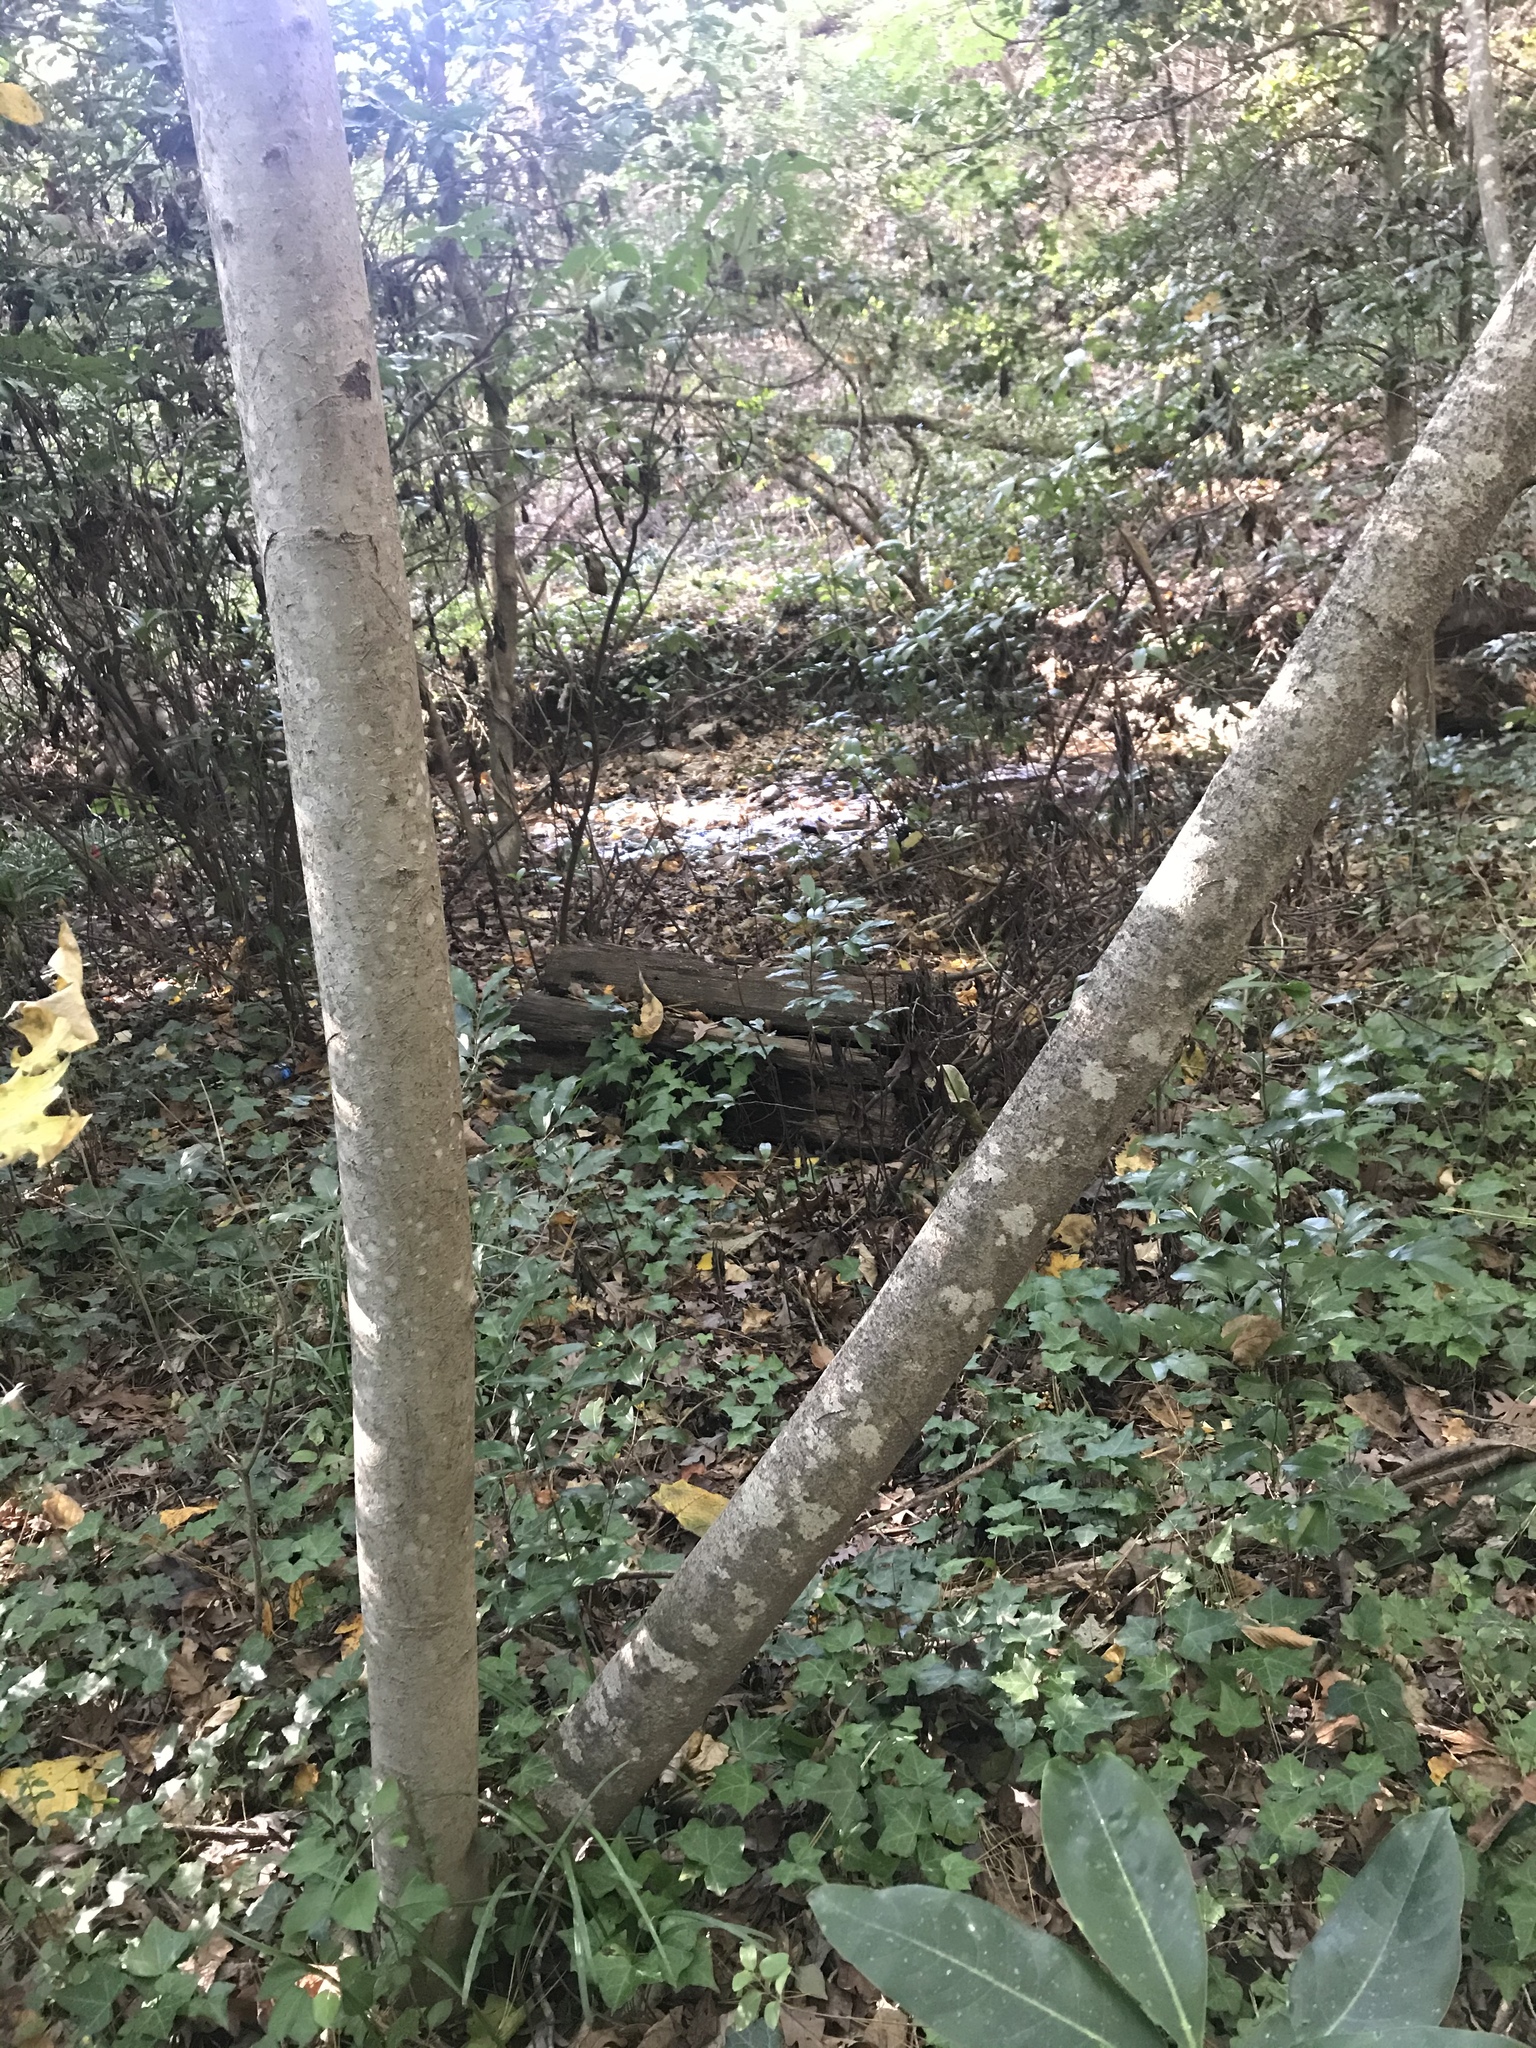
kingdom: Plantae
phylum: Tracheophyta
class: Magnoliopsida
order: Magnoliales
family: Magnoliaceae
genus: Magnolia
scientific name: Magnolia tripetala
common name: Umbrella magnolia
